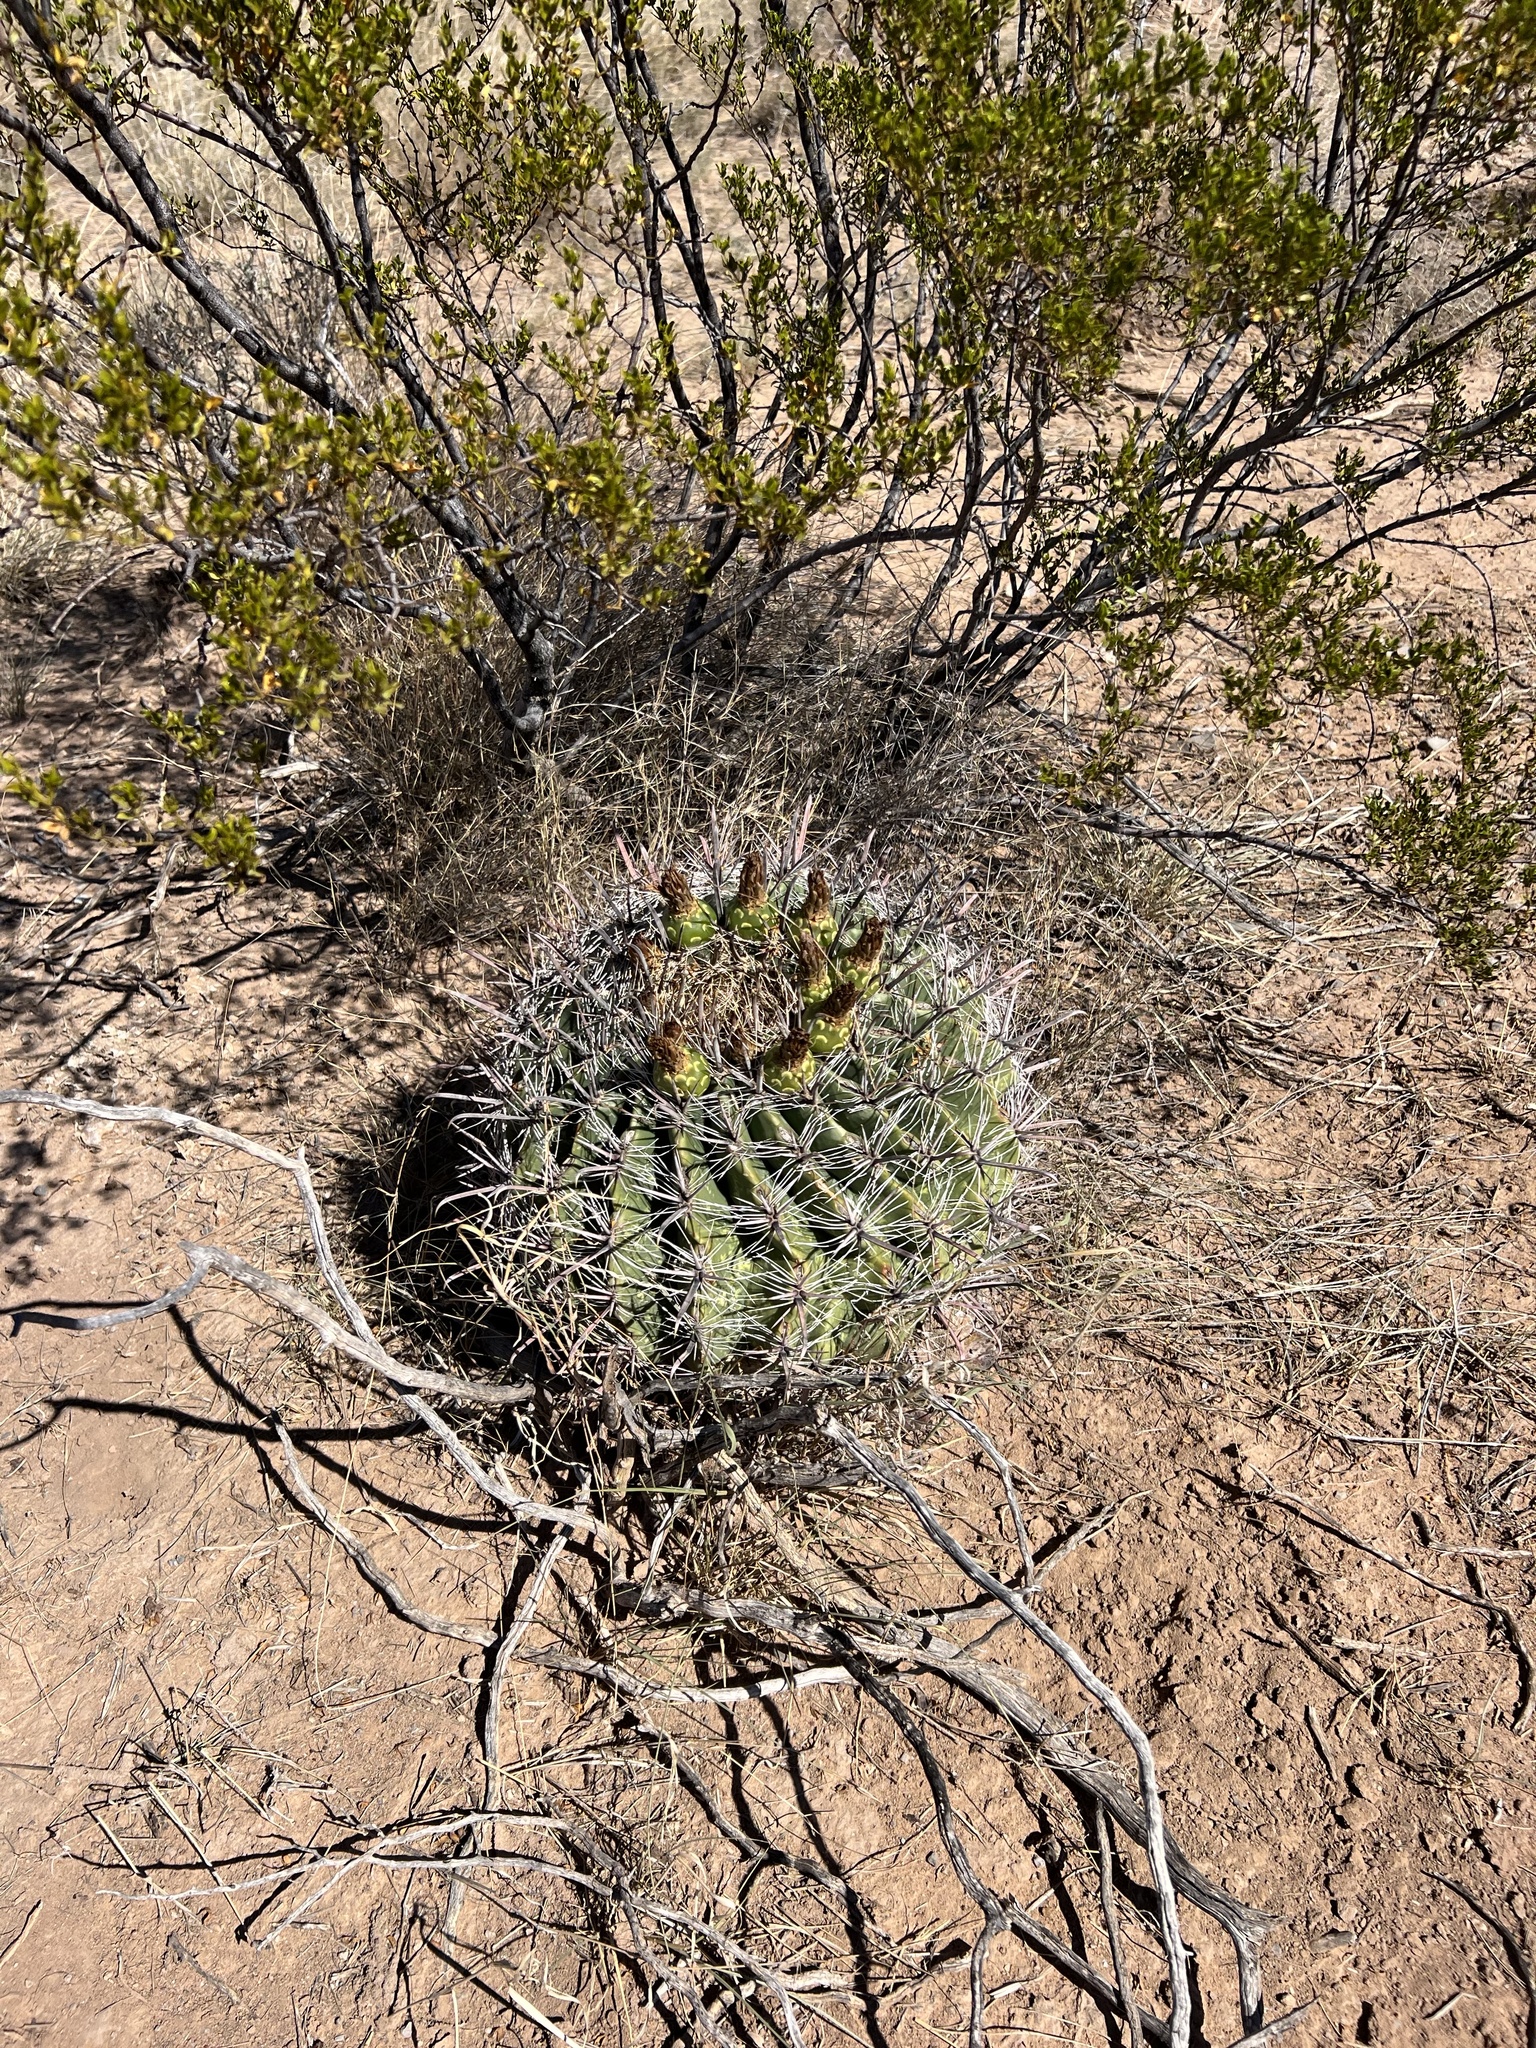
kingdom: Plantae
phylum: Tracheophyta
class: Magnoliopsida
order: Caryophyllales
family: Cactaceae
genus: Ferocactus
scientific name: Ferocactus wislizeni
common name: Candy barrel cactus
